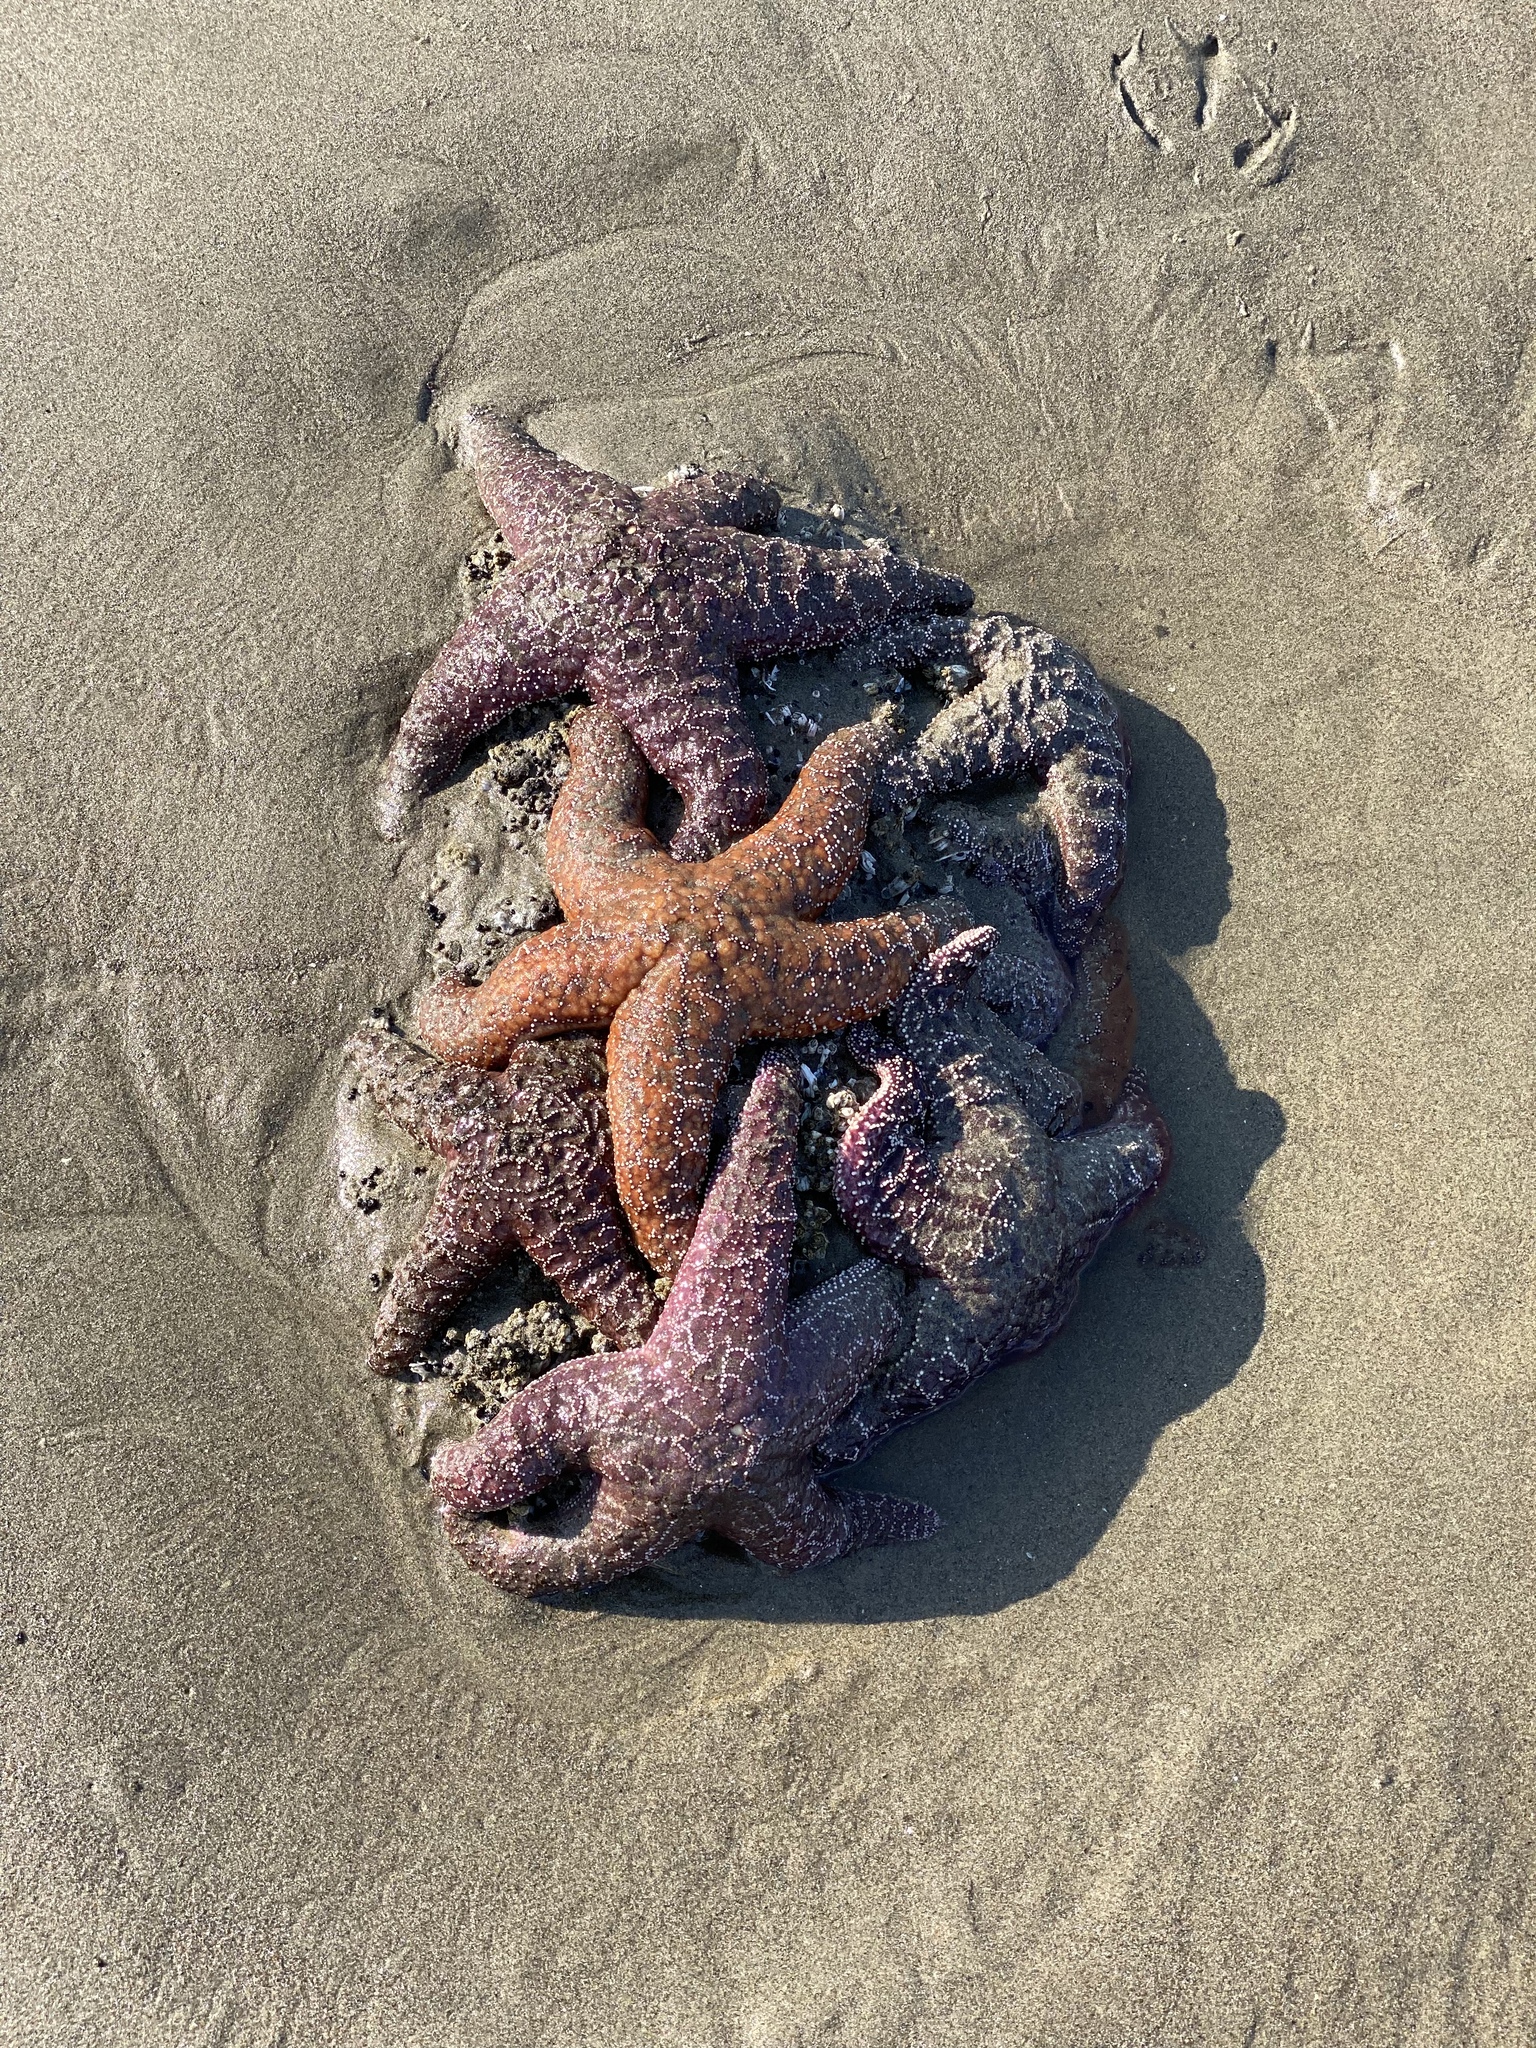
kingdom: Animalia
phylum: Echinodermata
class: Asteroidea
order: Forcipulatida
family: Asteriidae
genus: Pisaster
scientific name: Pisaster ochraceus
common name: Ochre stars
